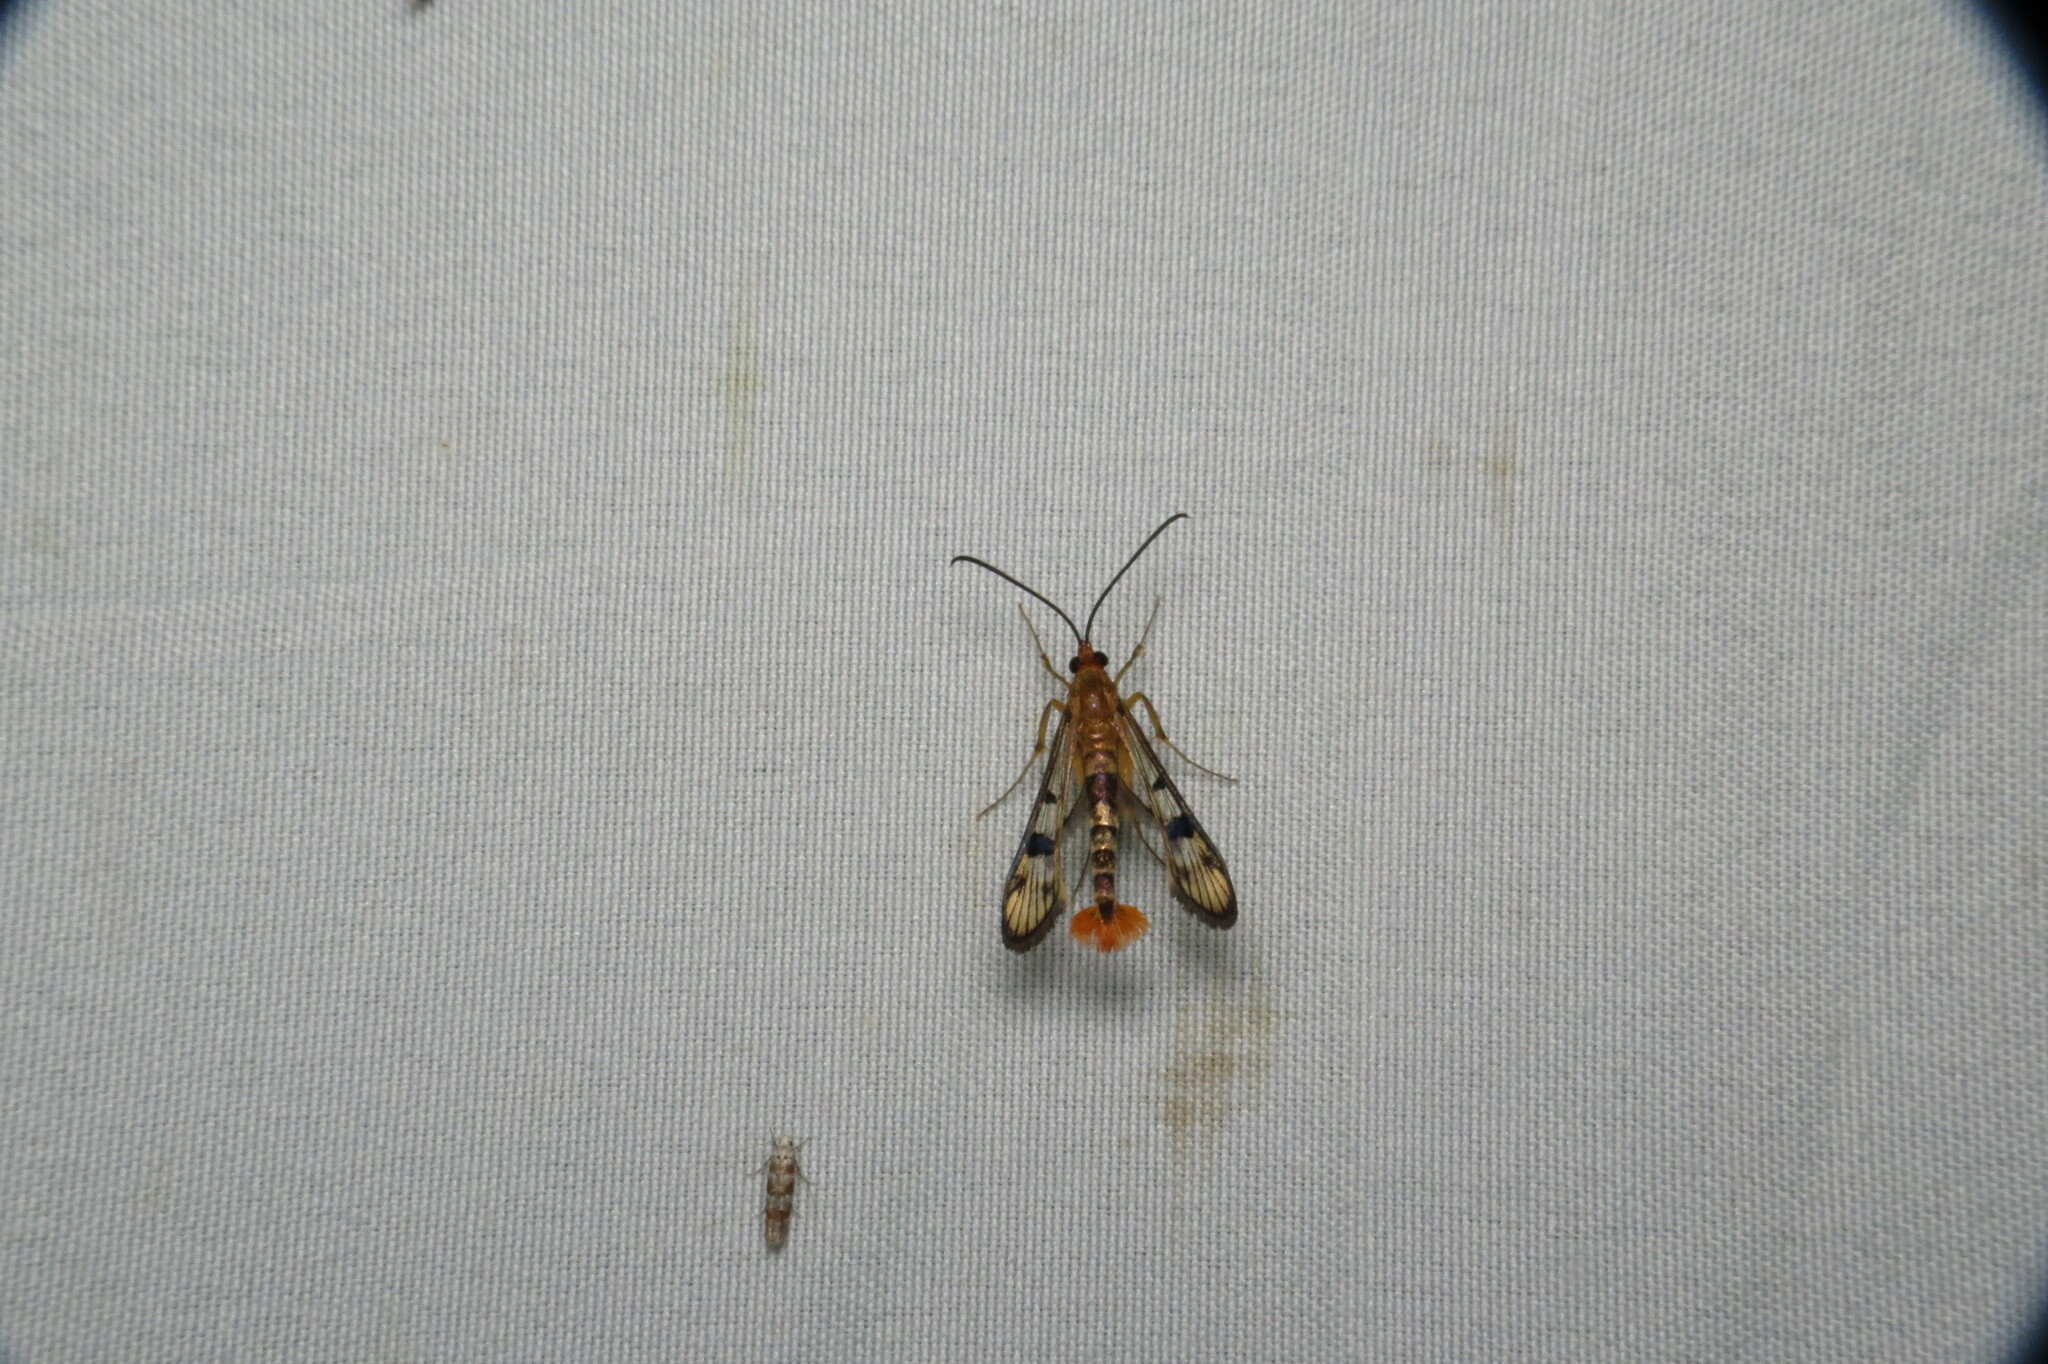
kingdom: Animalia
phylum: Arthropoda
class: Insecta
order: Lepidoptera
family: Sesiidae
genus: Synanthedon
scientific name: Synanthedon acerni
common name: Maple callus borer moth
